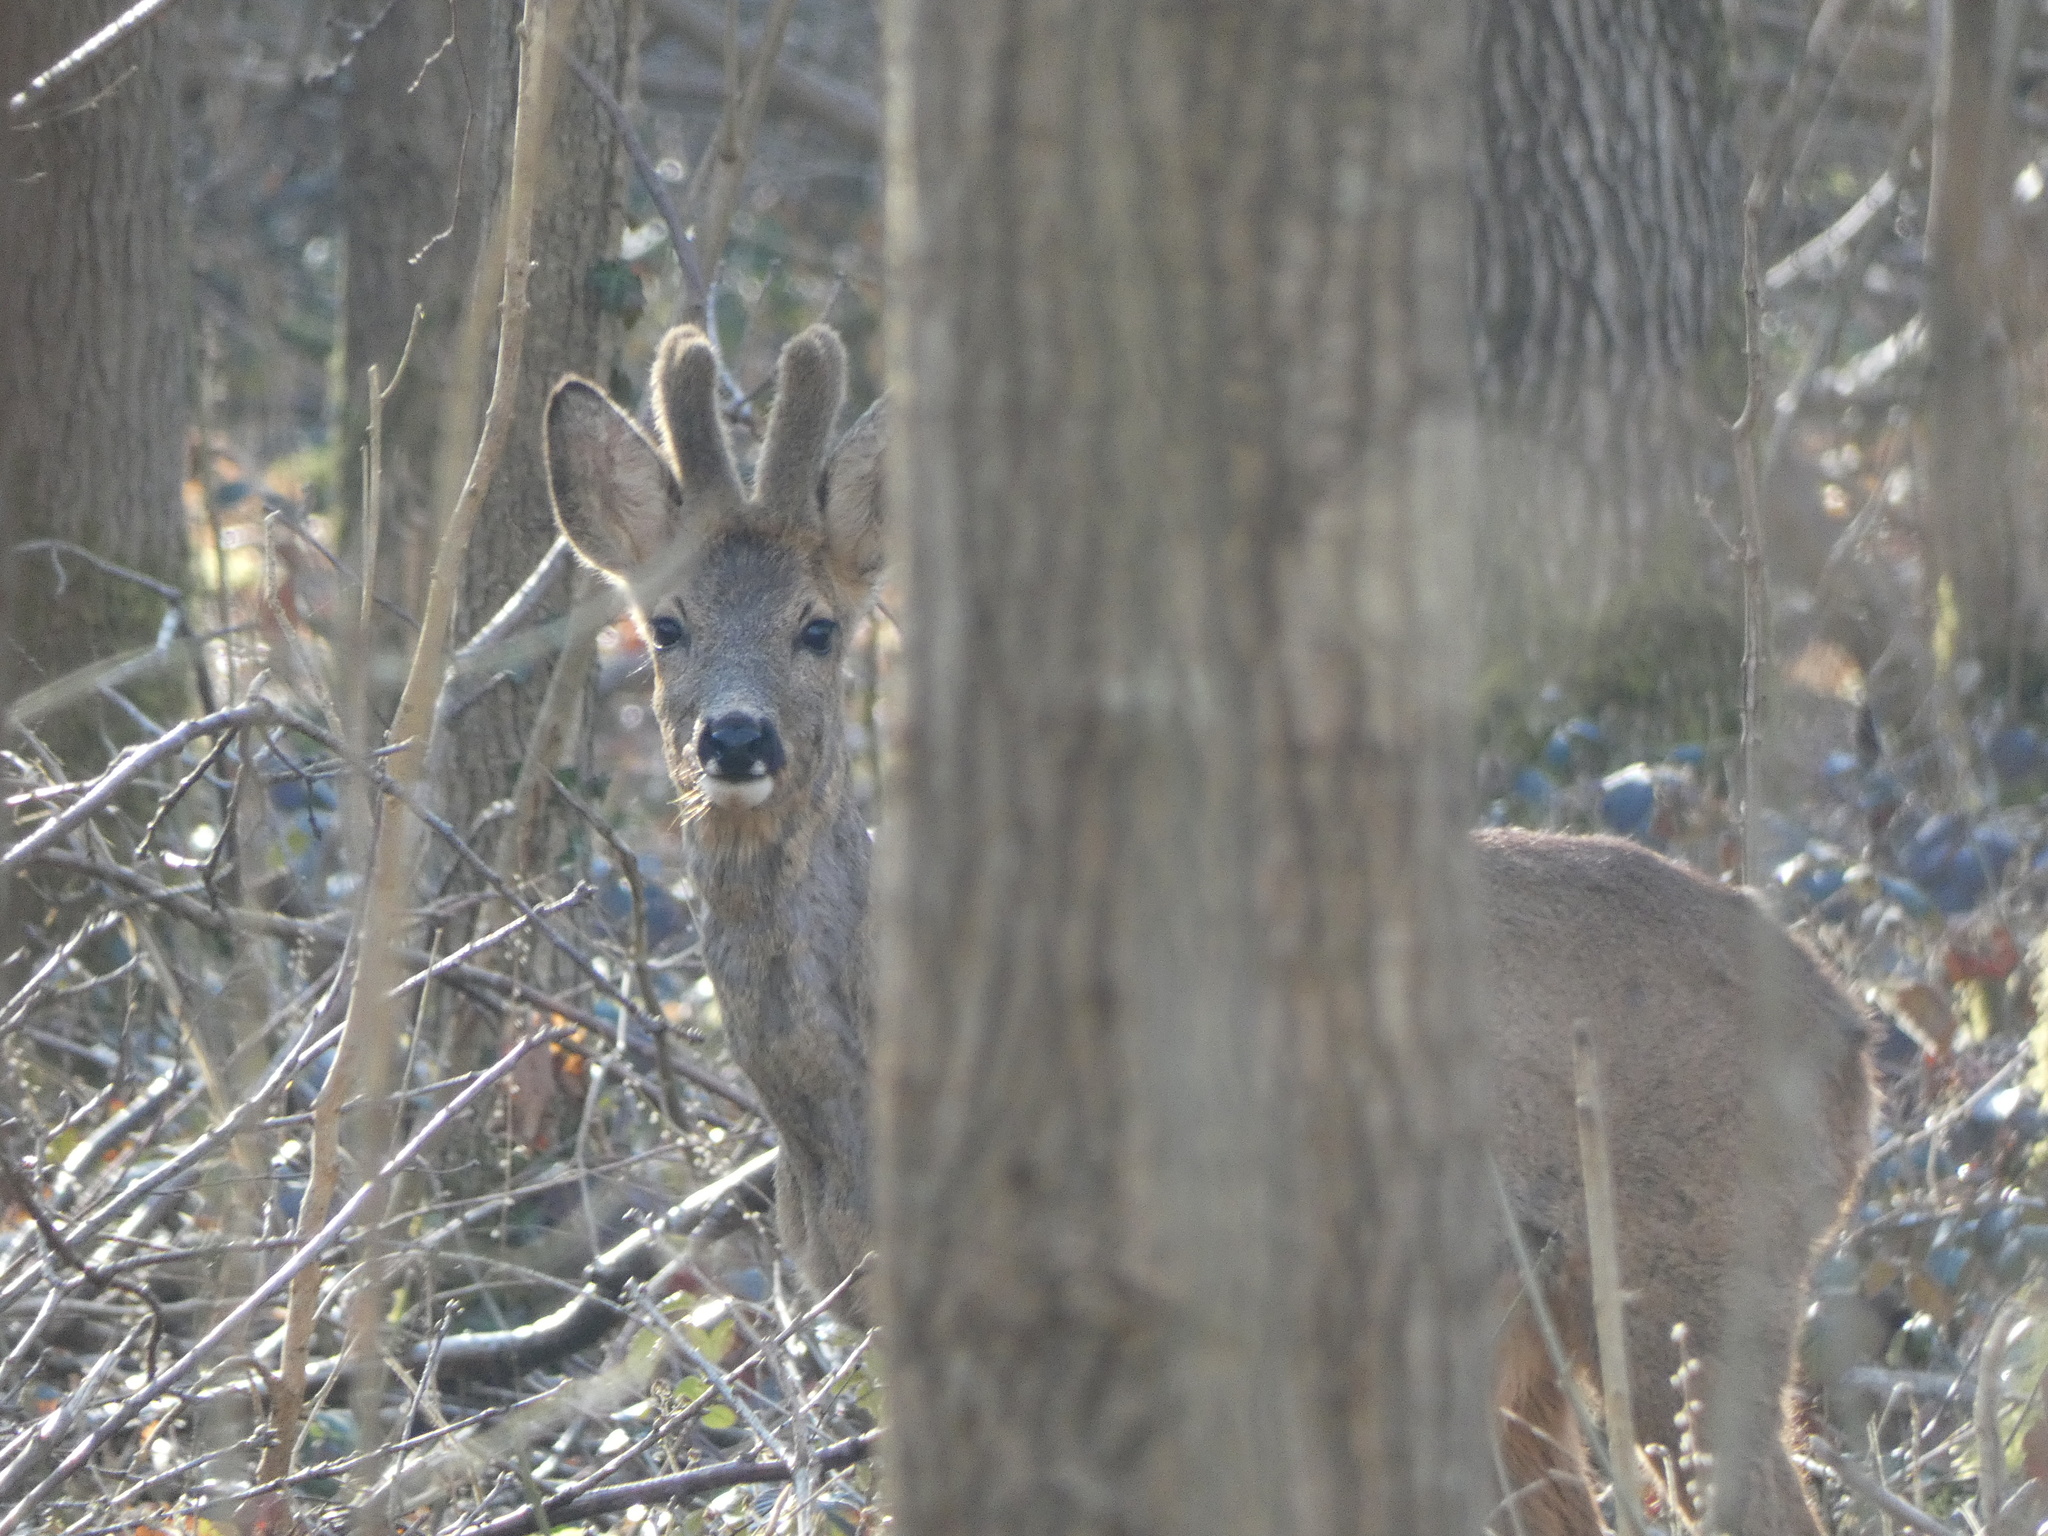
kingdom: Animalia
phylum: Chordata
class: Mammalia
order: Artiodactyla
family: Cervidae
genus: Capreolus
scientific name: Capreolus capreolus
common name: Western roe deer
